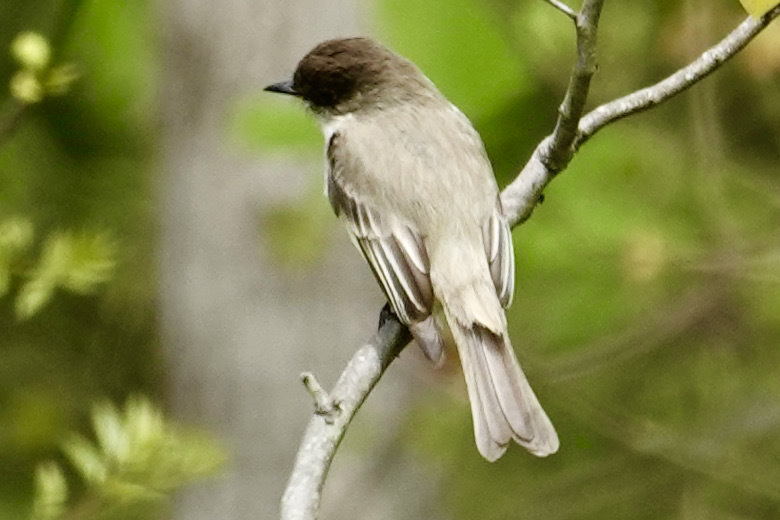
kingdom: Animalia
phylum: Chordata
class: Aves
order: Passeriformes
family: Tyrannidae
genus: Sayornis
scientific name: Sayornis phoebe
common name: Eastern phoebe
